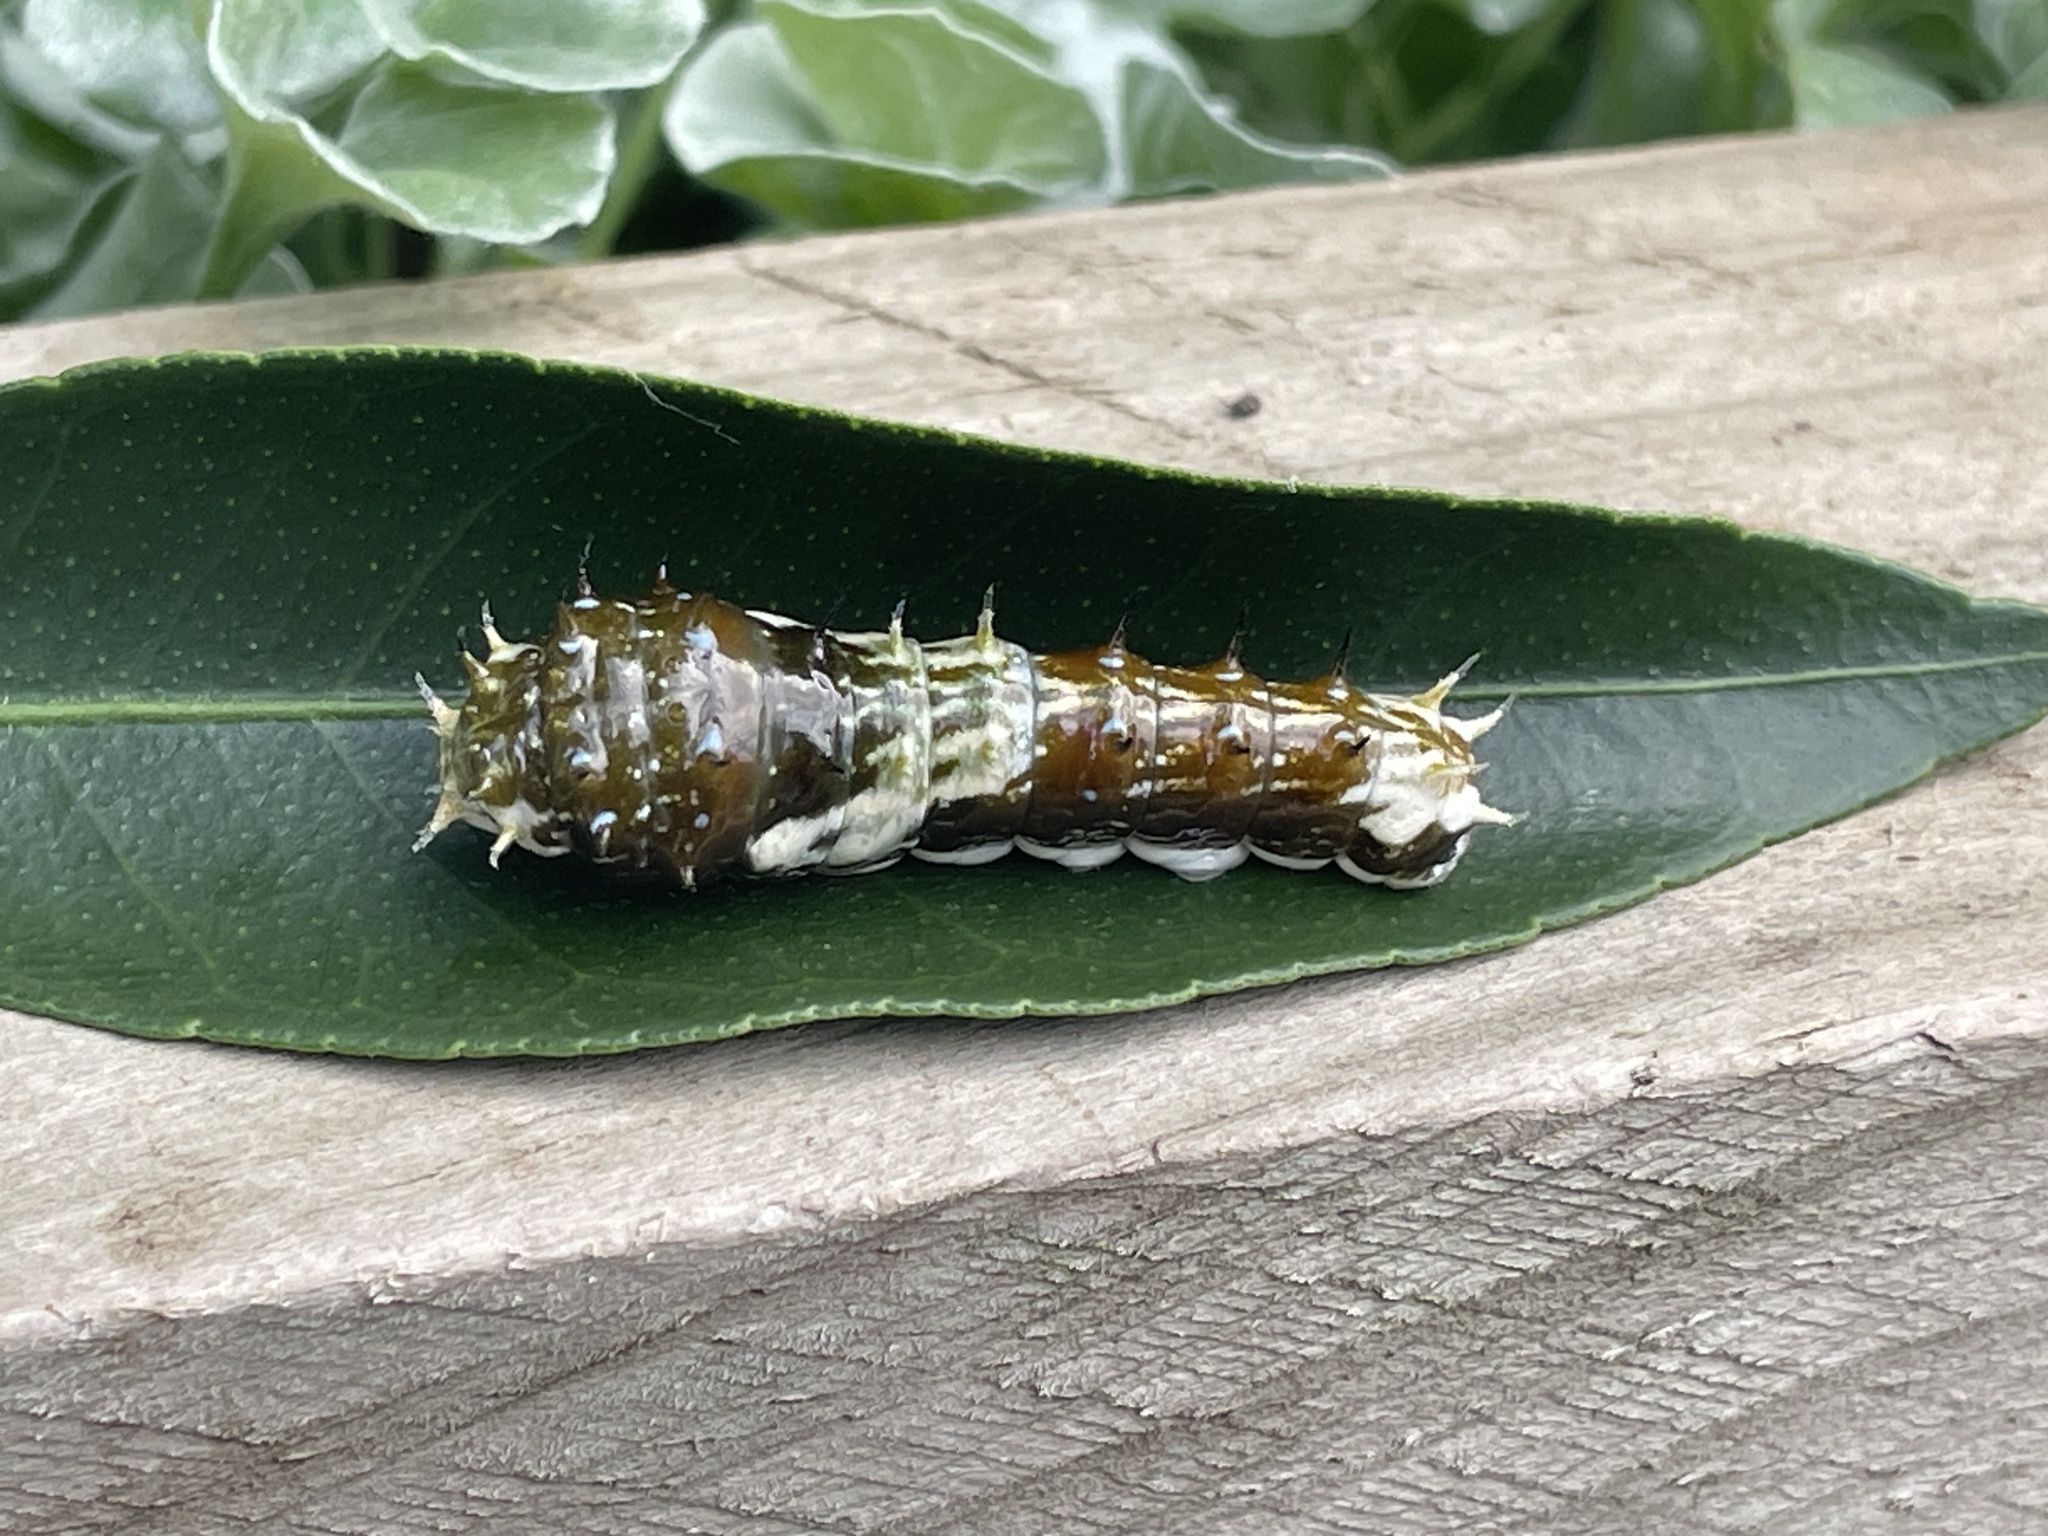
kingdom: Animalia
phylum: Arthropoda
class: Insecta
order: Lepidoptera
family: Papilionidae
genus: Papilio
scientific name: Papilio aegeus
